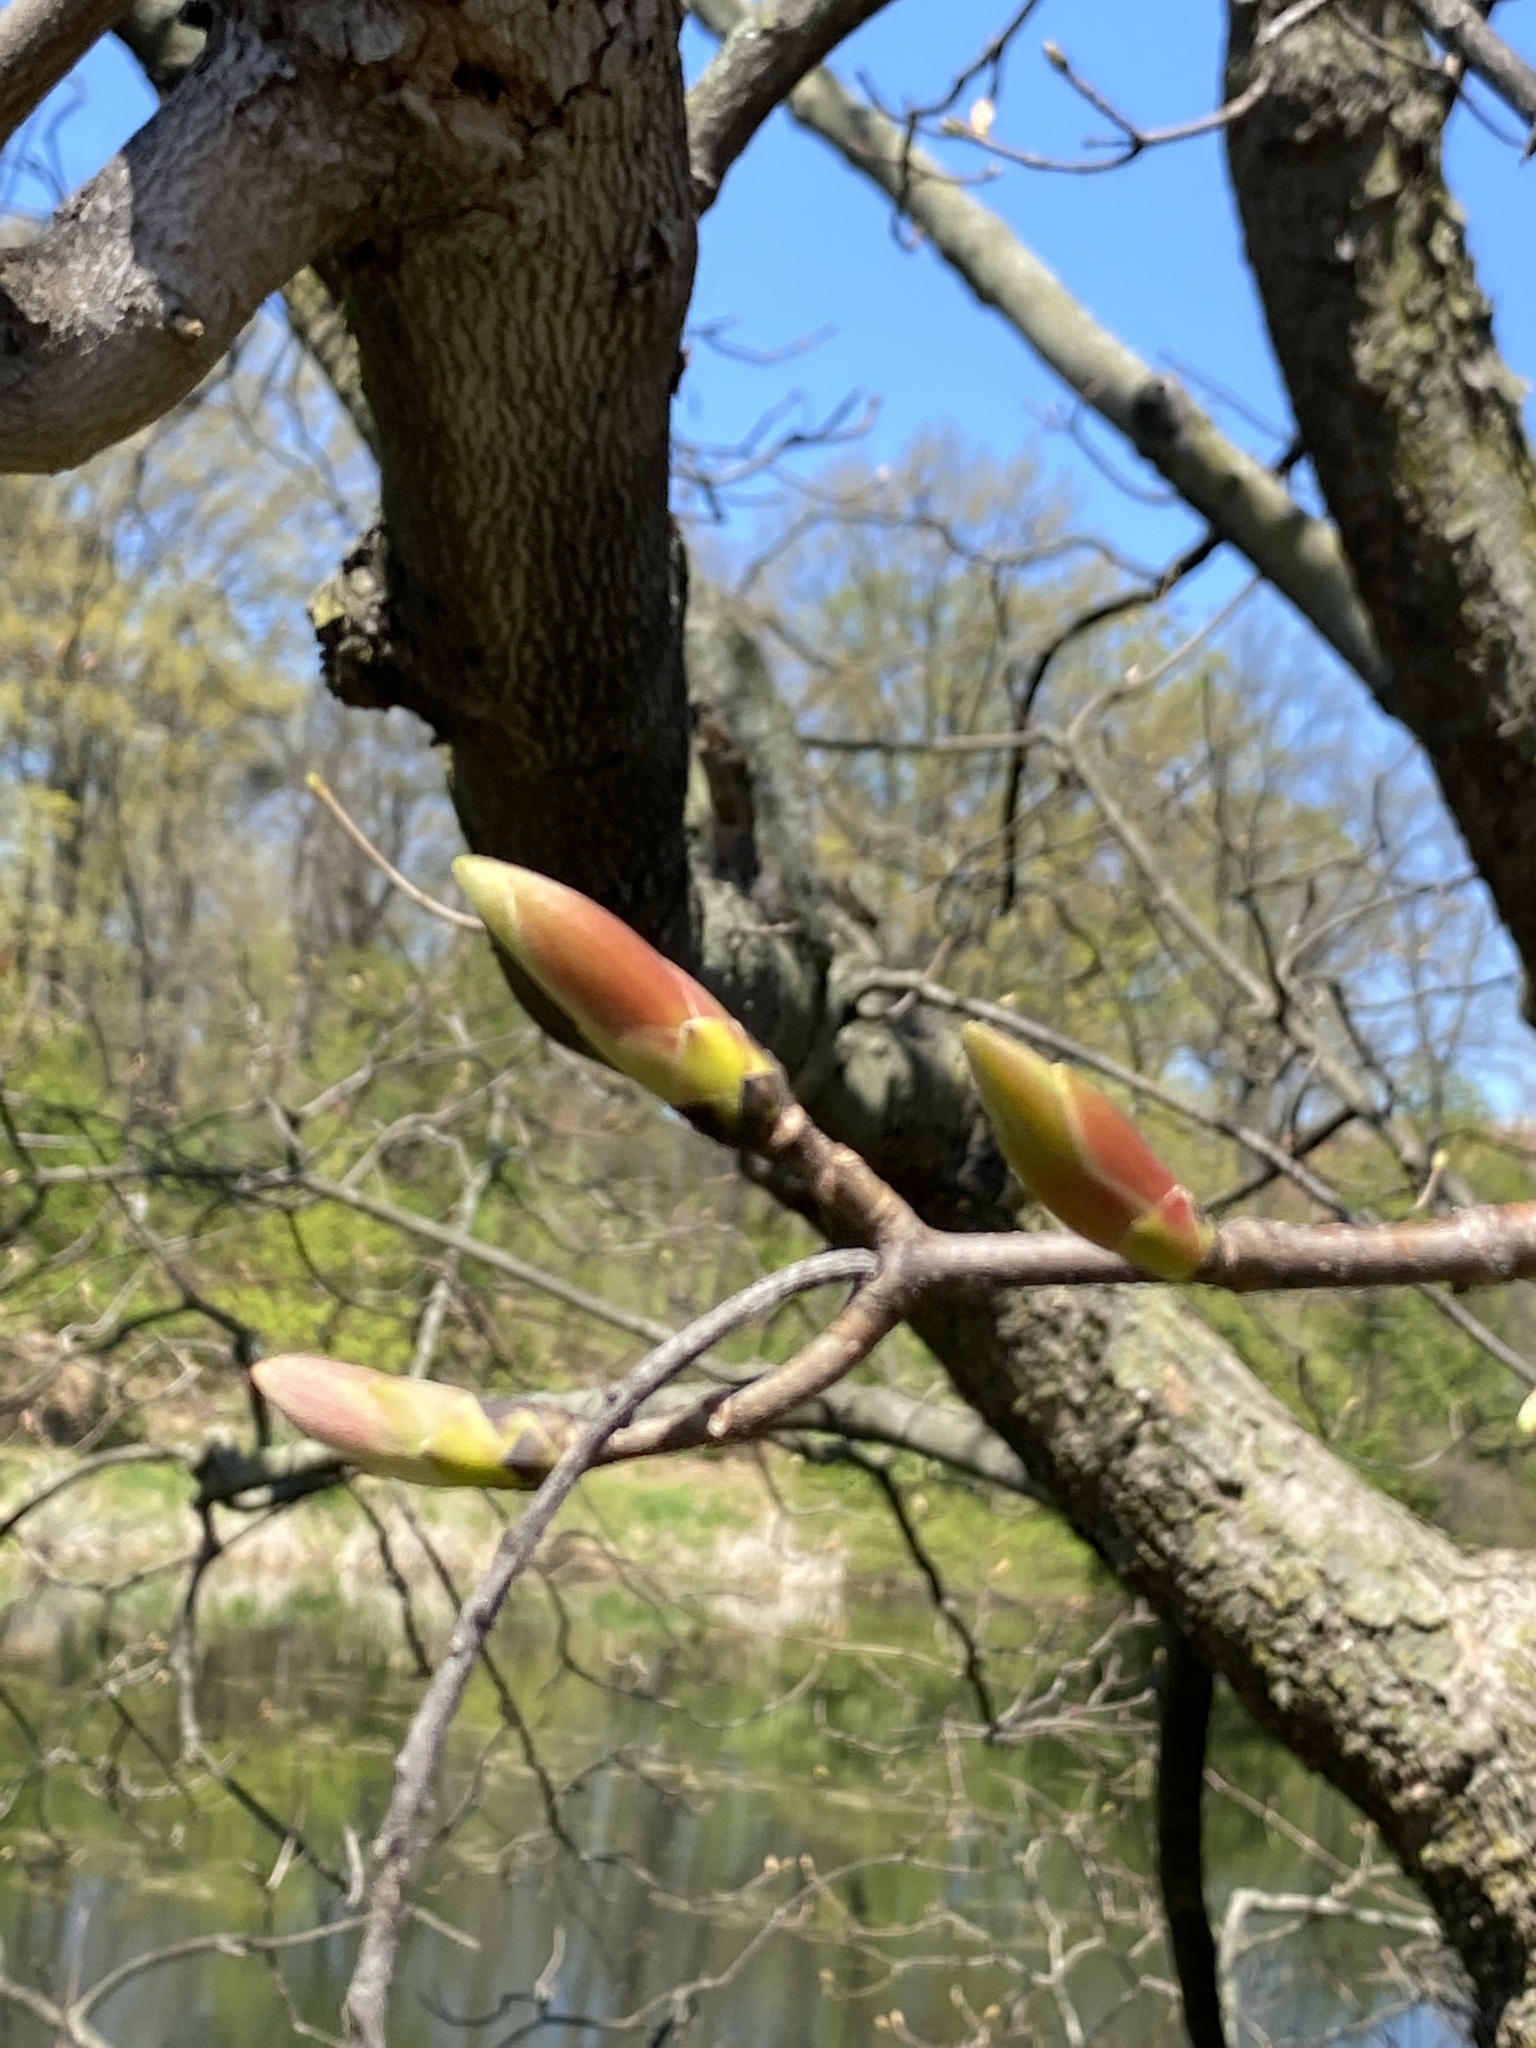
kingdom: Plantae
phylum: Tracheophyta
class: Magnoliopsida
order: Sapindales
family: Sapindaceae
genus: Acer
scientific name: Acer pseudoplatanus
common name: Sycamore
